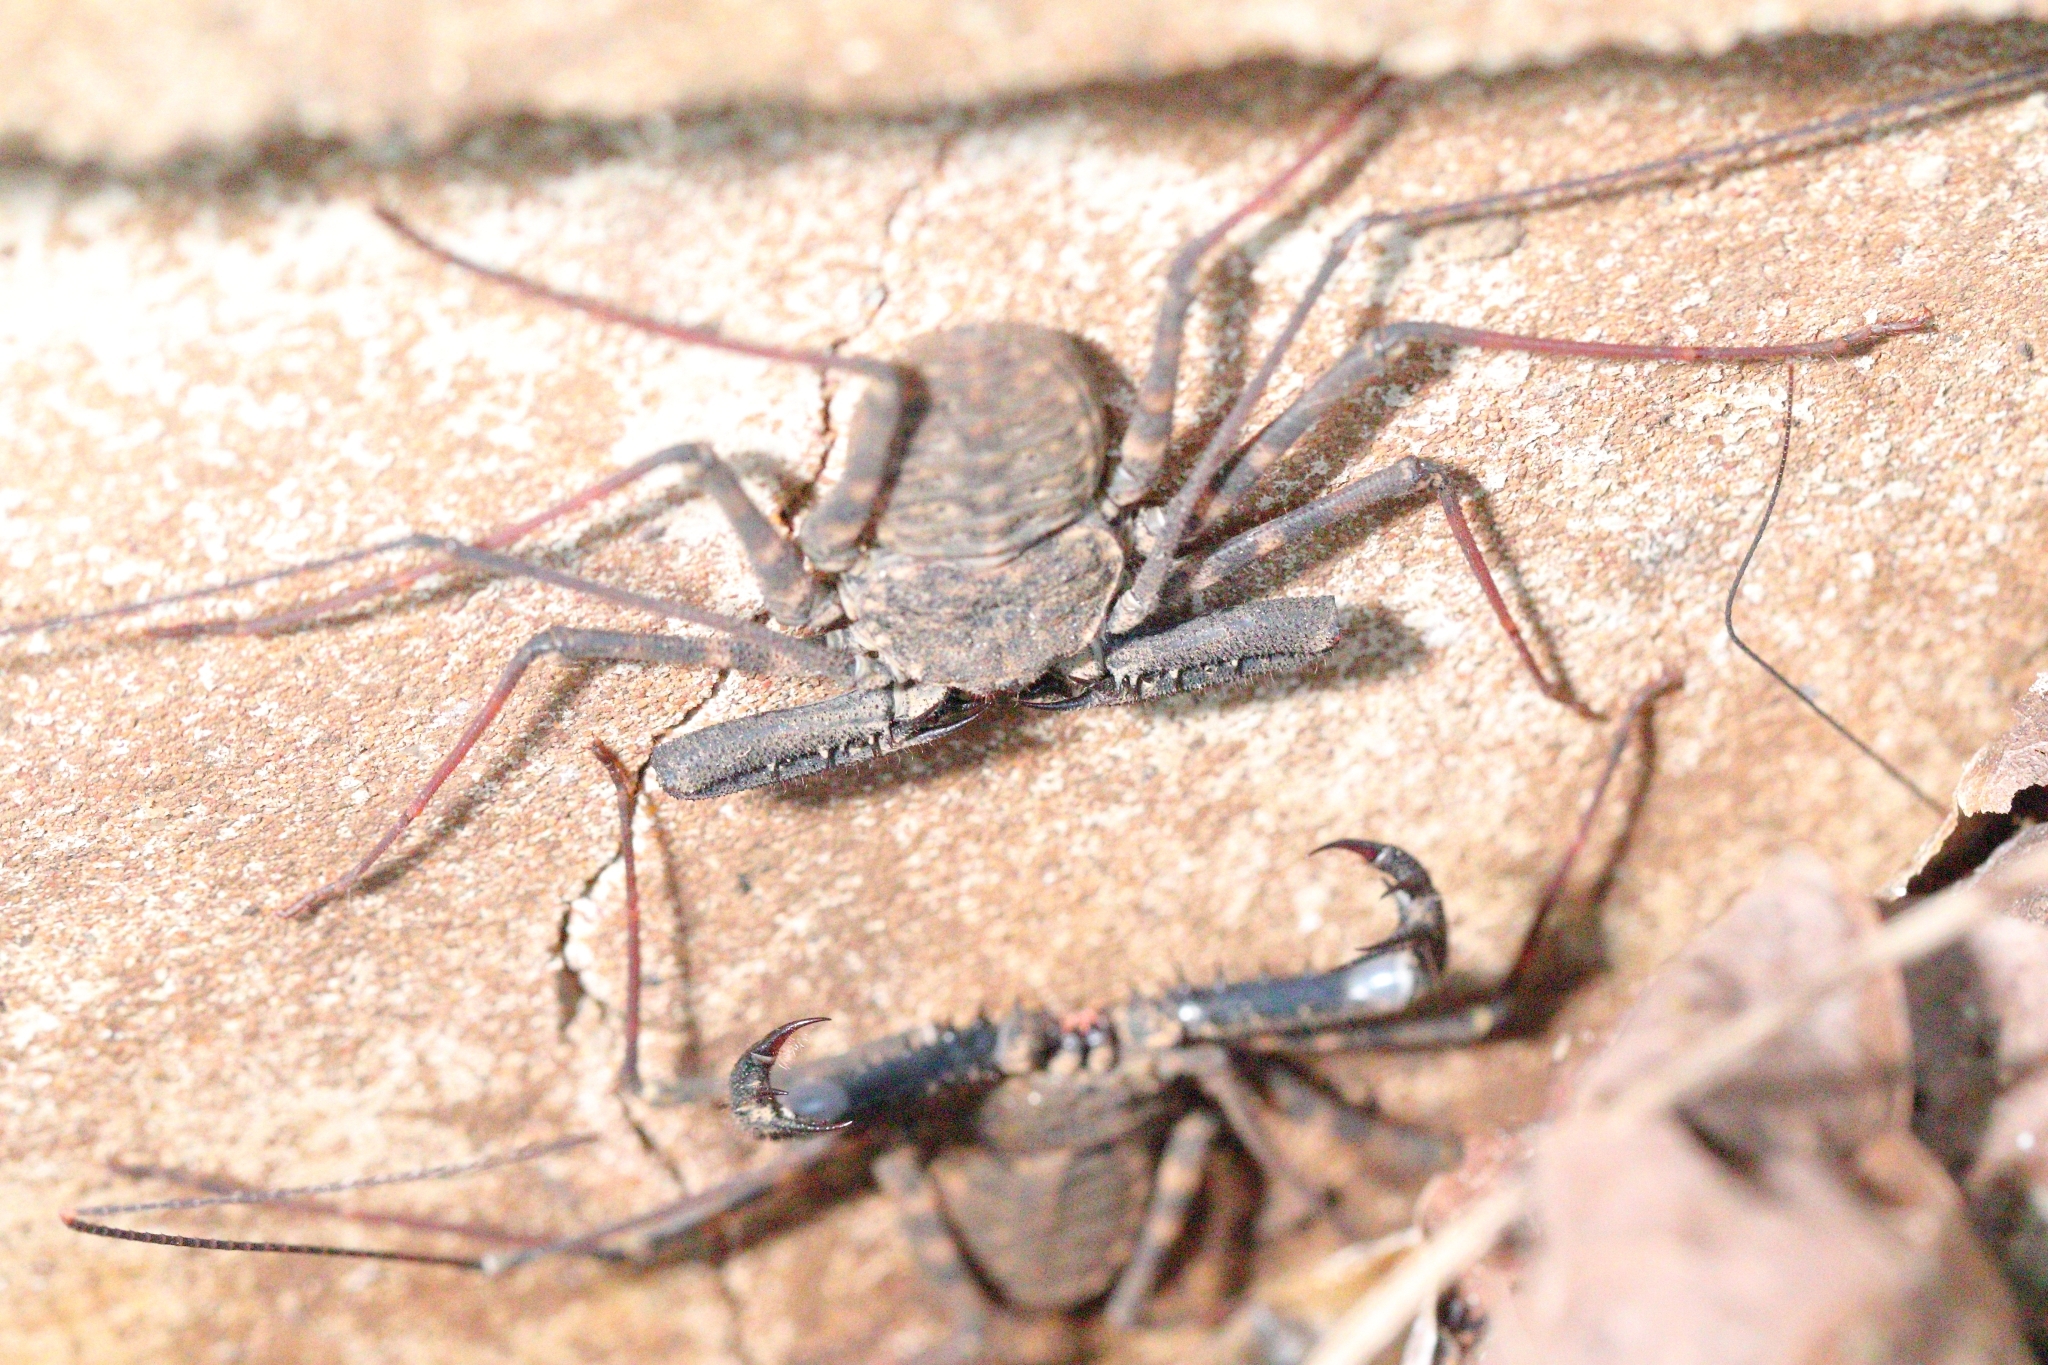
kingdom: Animalia
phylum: Arthropoda
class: Arachnida
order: Amblypygi
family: Phrynichidae
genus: Damon
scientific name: Damon annulatipes
